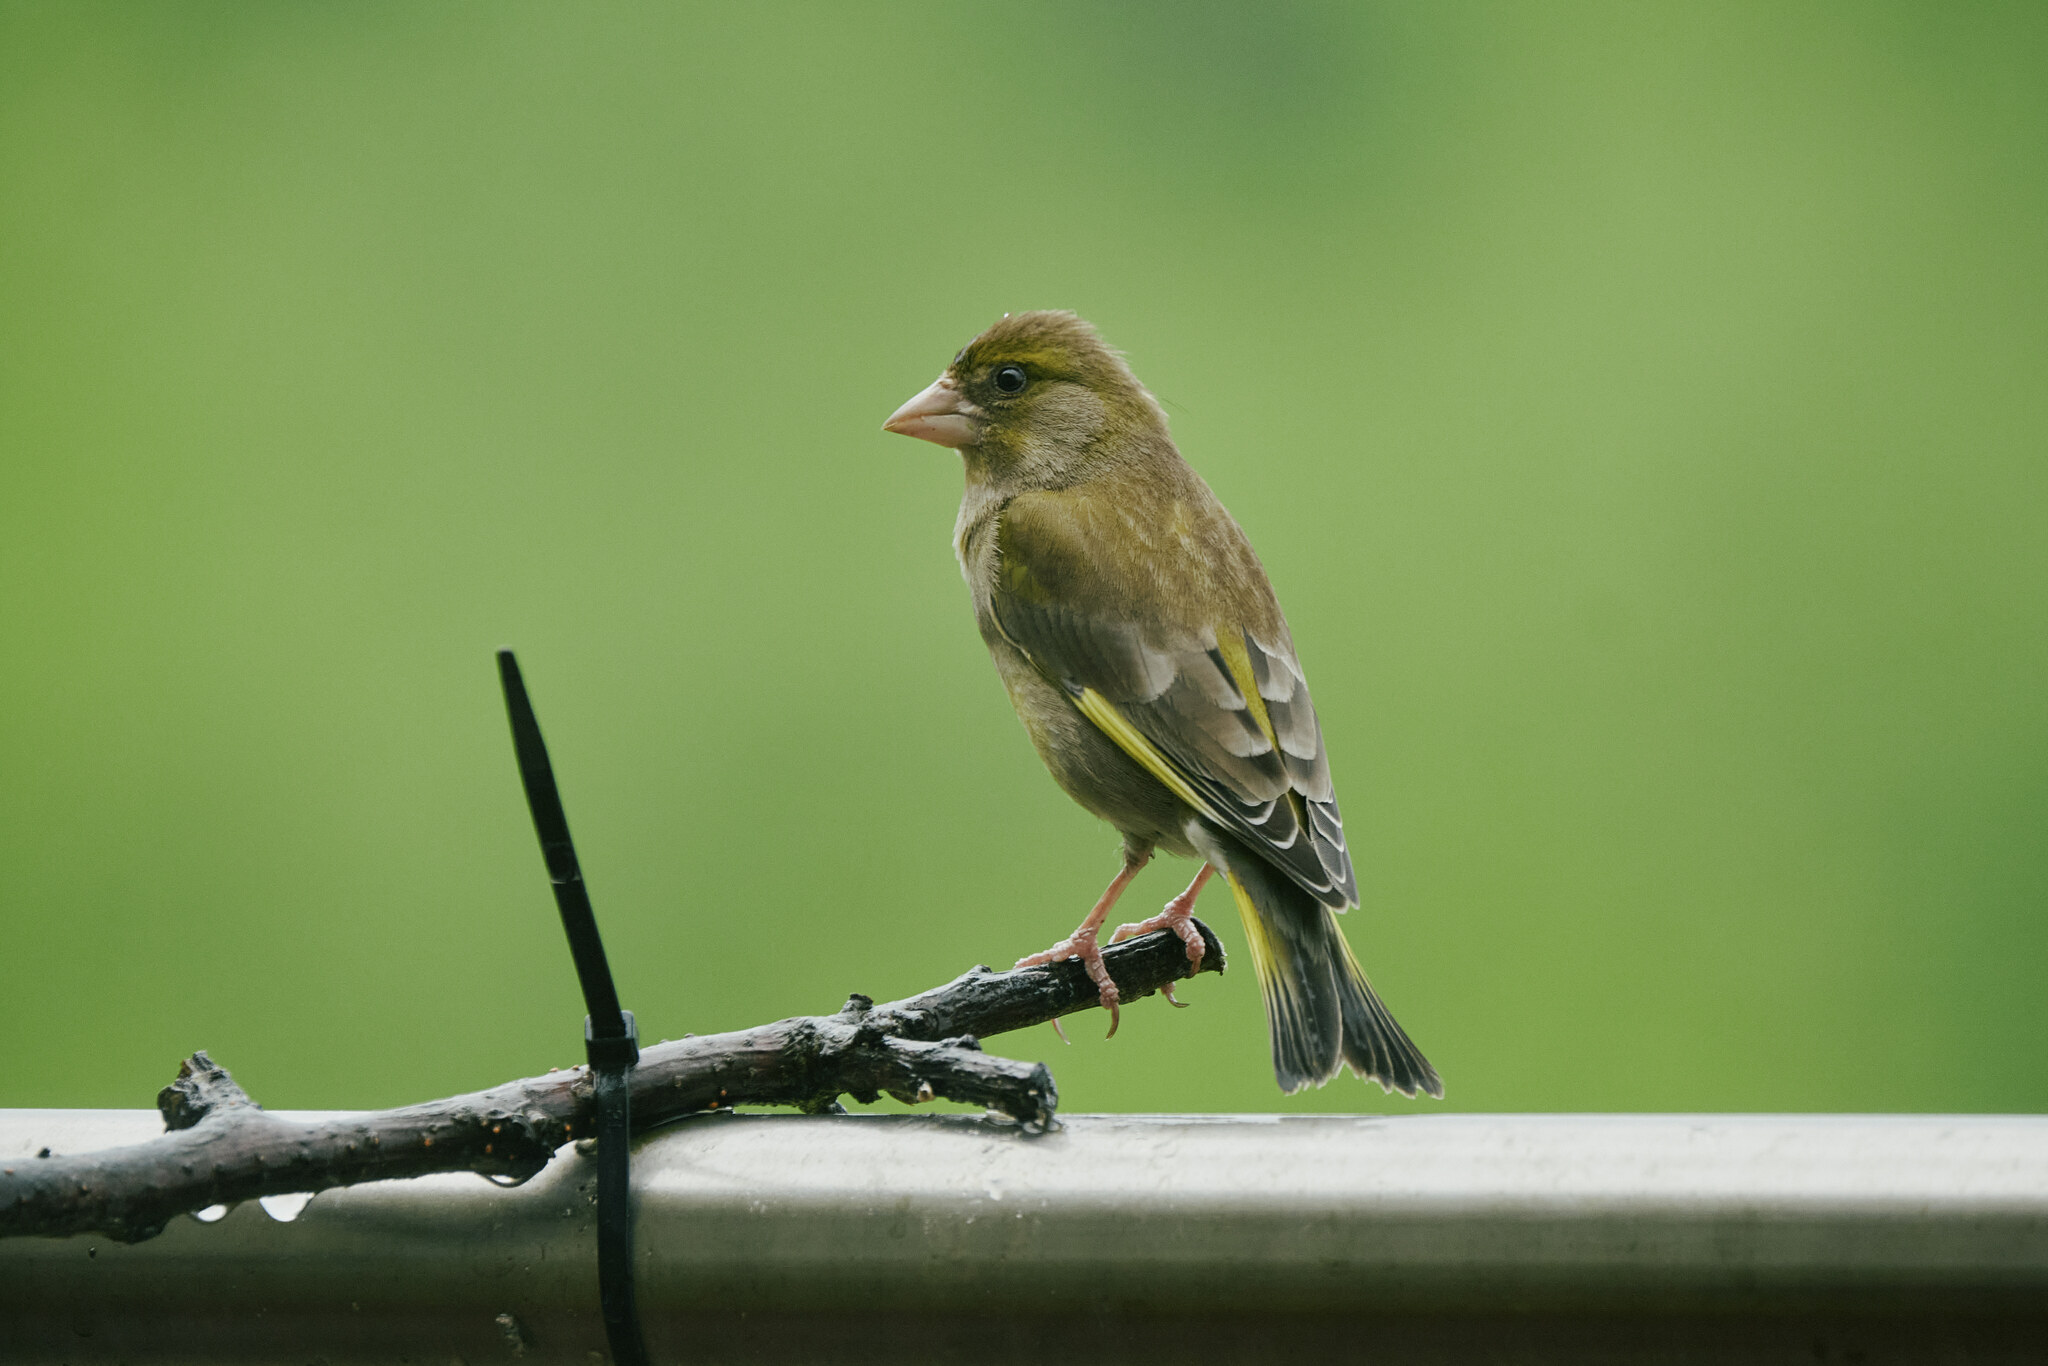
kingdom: Plantae
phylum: Tracheophyta
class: Liliopsida
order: Poales
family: Poaceae
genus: Chloris
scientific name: Chloris chloris
